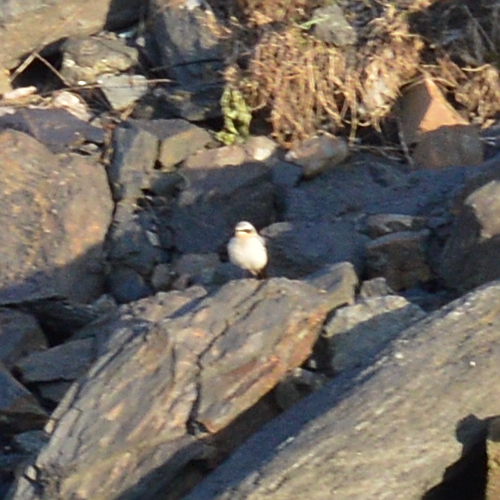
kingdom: Animalia
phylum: Chordata
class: Aves
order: Passeriformes
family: Muscicapidae
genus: Oenanthe
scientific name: Oenanthe oenanthe
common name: Northern wheatear
